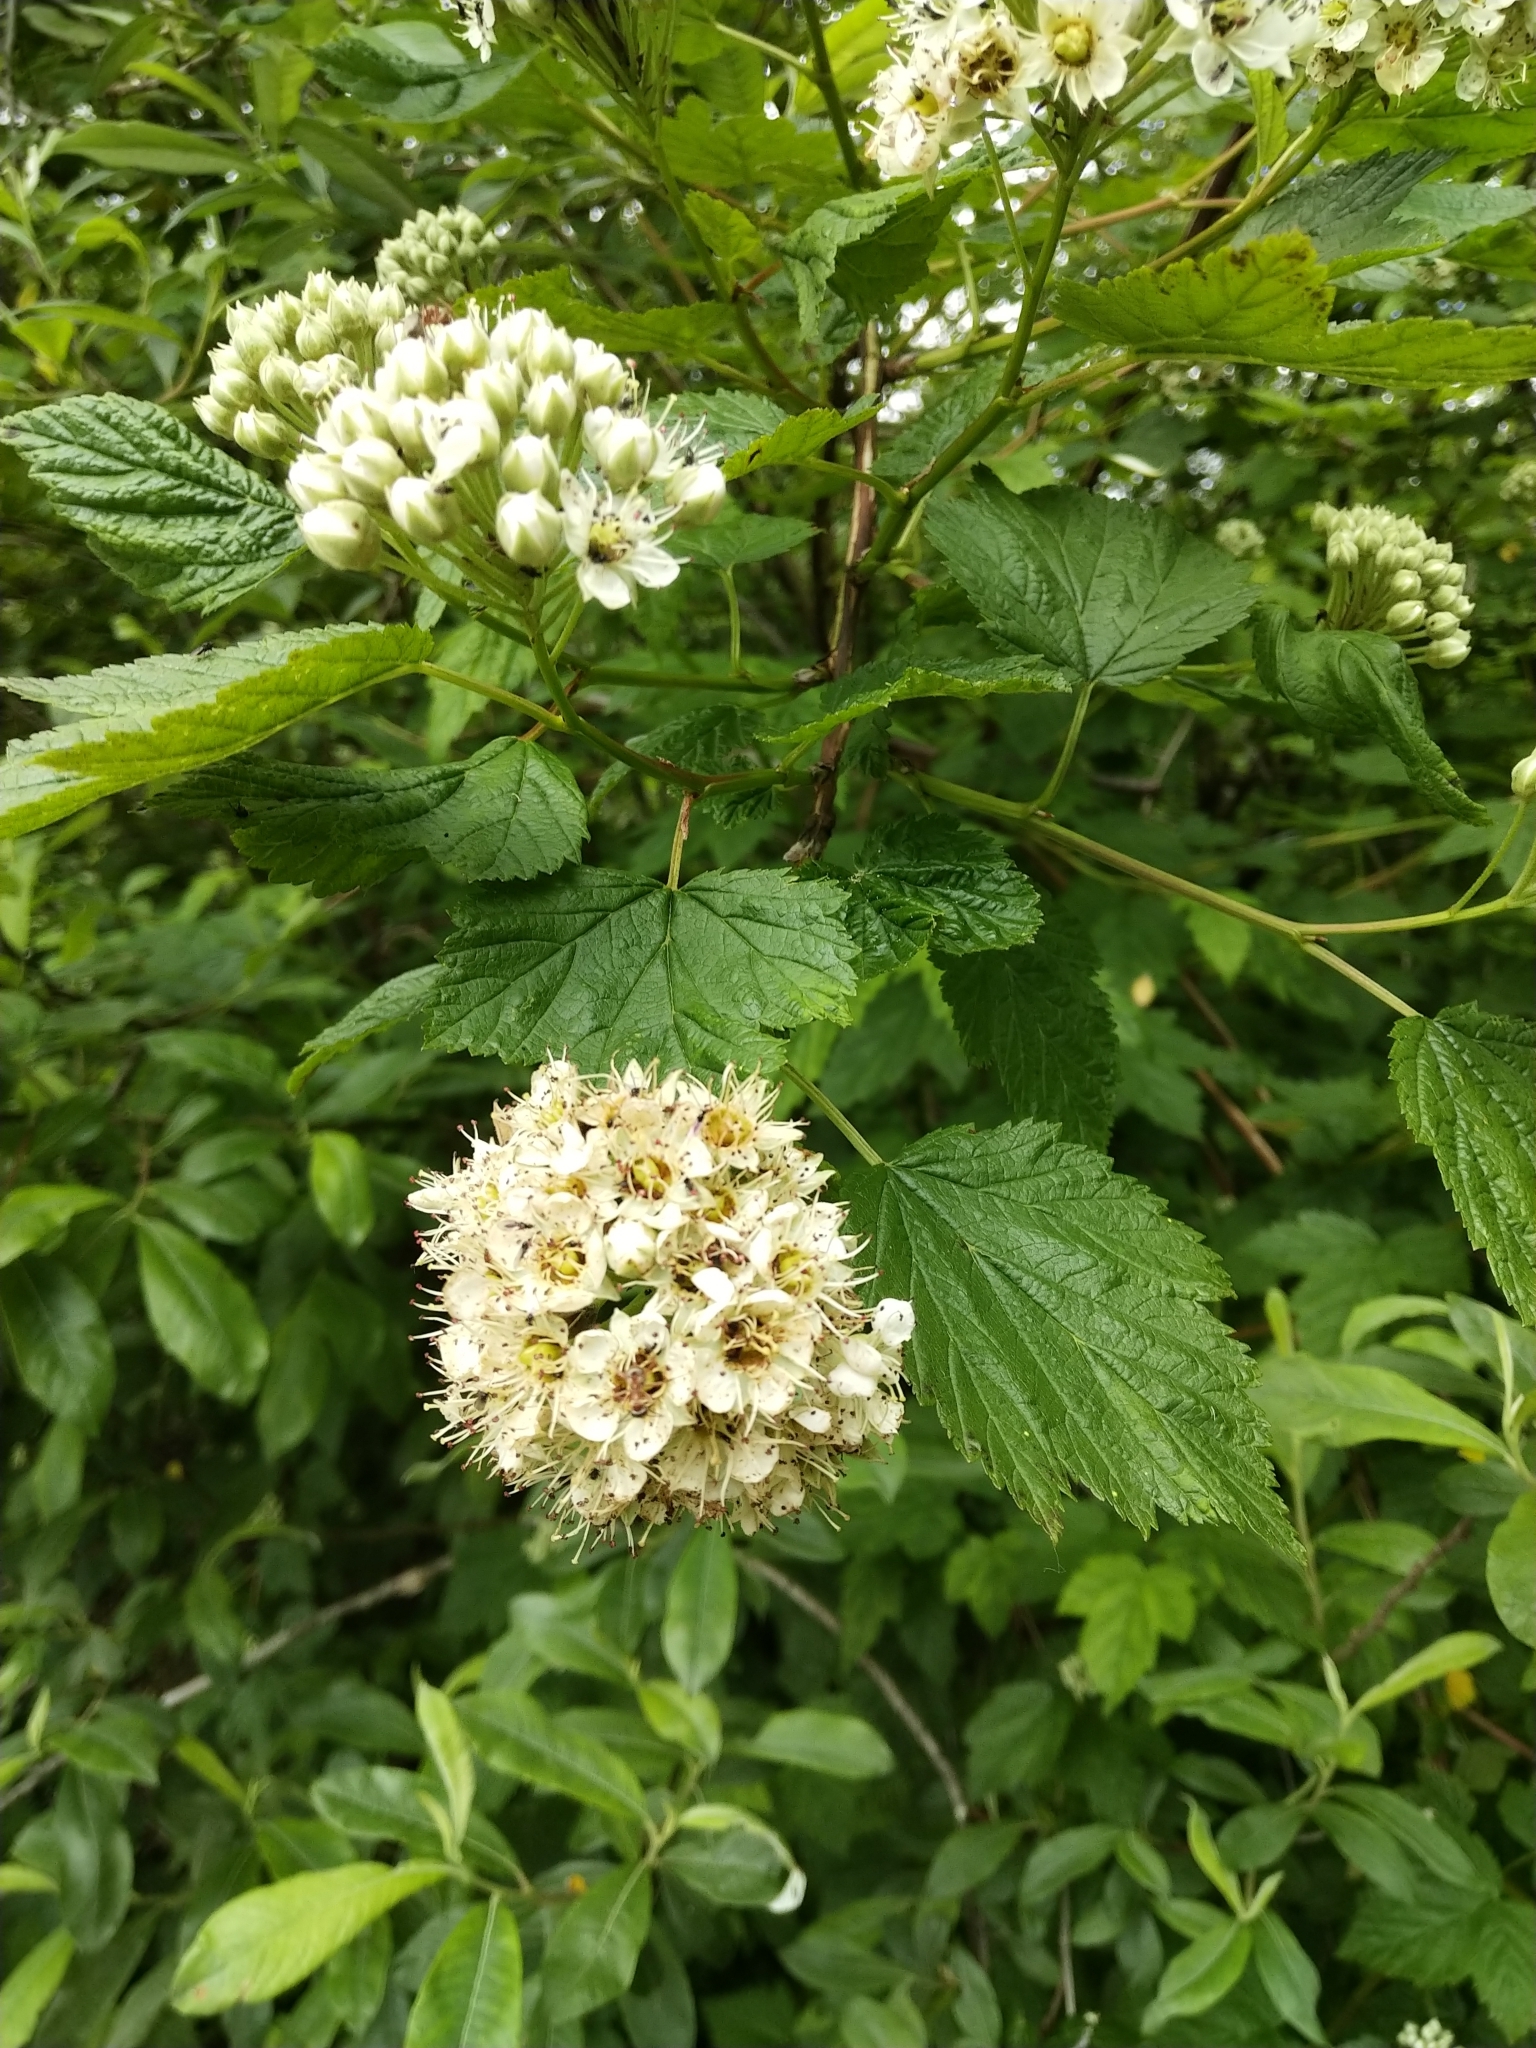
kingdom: Plantae
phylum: Tracheophyta
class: Magnoliopsida
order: Rosales
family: Rosaceae
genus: Physocarpus
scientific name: Physocarpus capitatus
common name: Pacific ninebark
